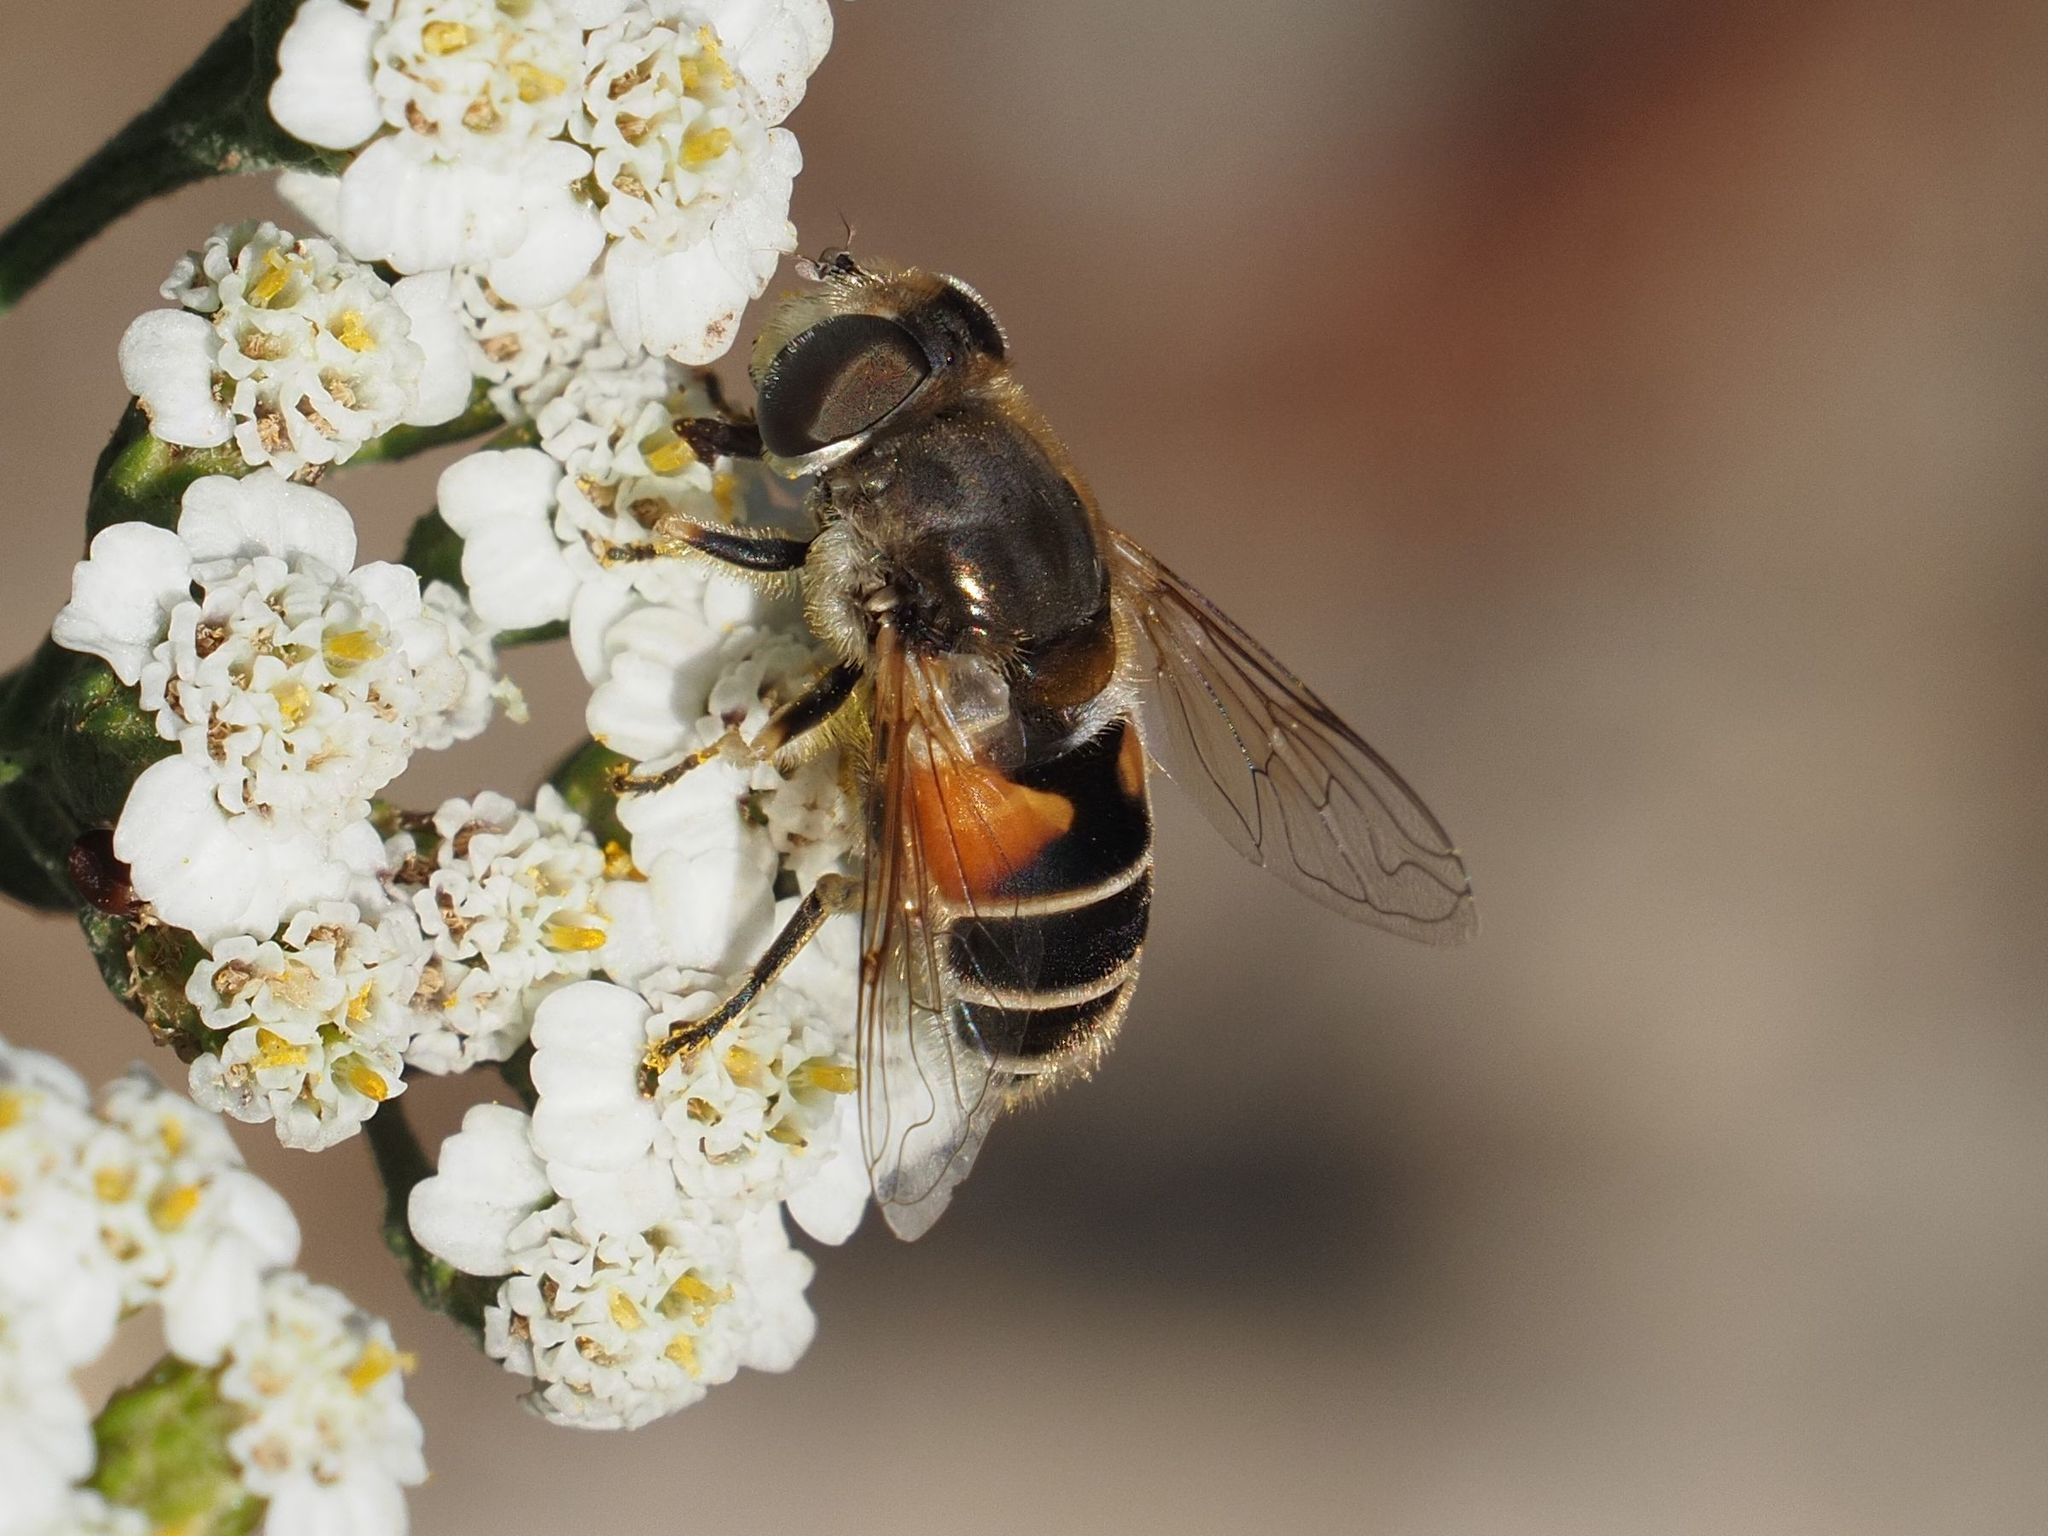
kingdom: Animalia
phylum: Arthropoda
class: Insecta
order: Diptera
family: Syrphidae
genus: Eristalis
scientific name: Eristalis arbustorum
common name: Hover fly
